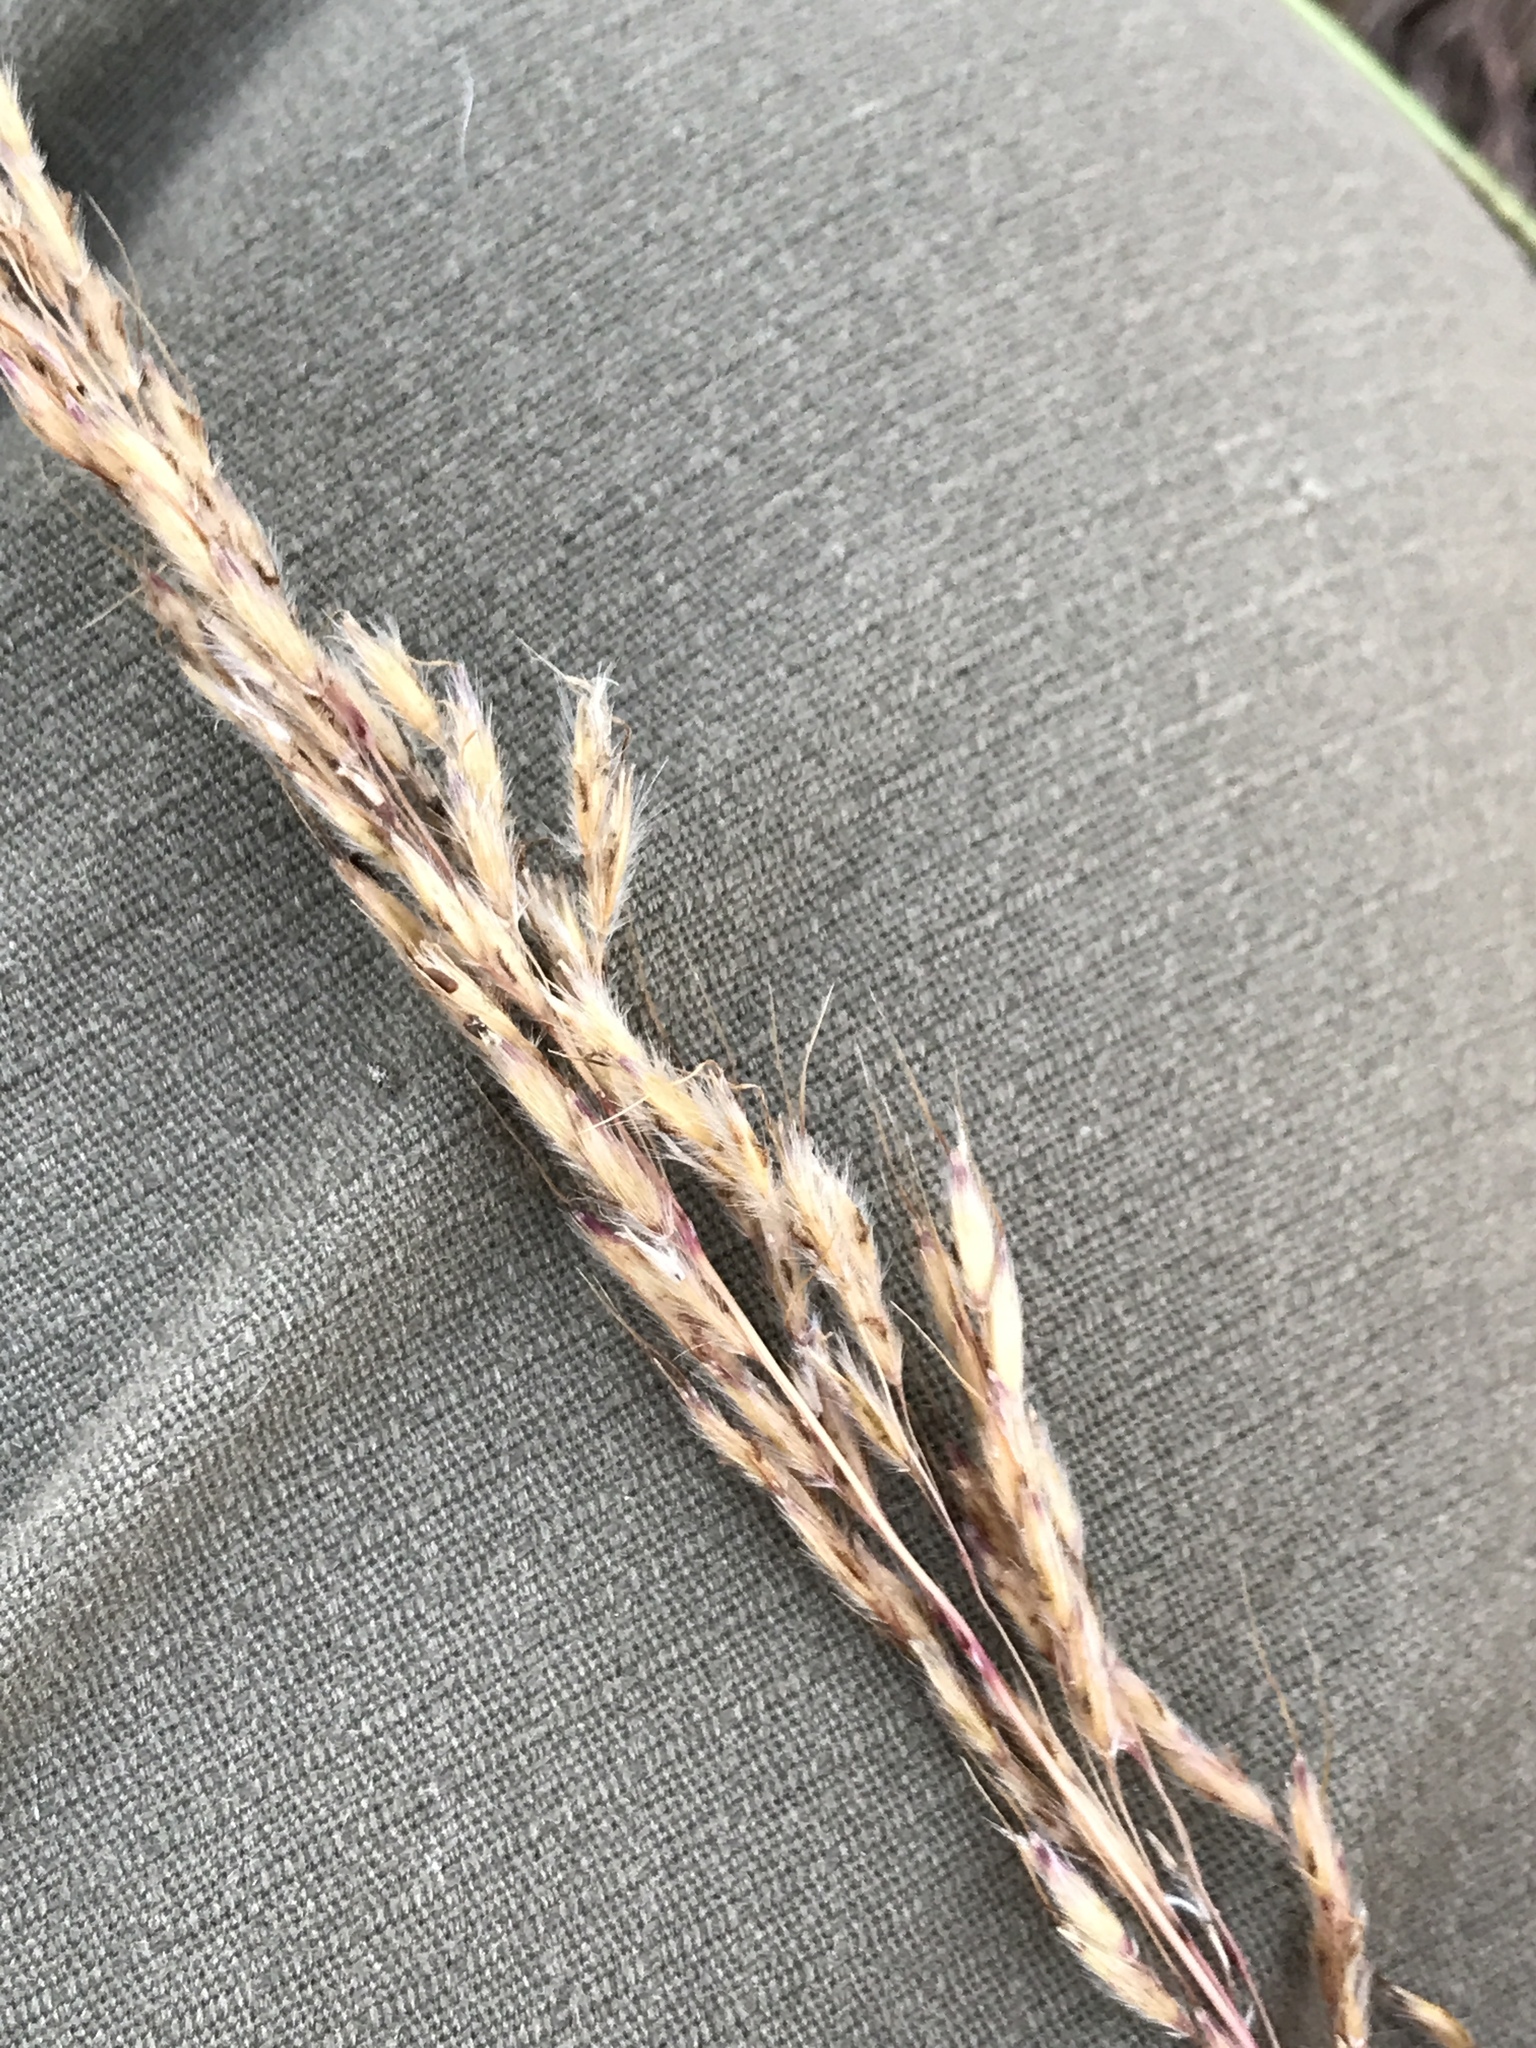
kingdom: Plantae
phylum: Tracheophyta
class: Liliopsida
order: Poales
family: Poaceae
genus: Sorghastrum
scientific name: Sorghastrum nutans
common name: Indian grass
